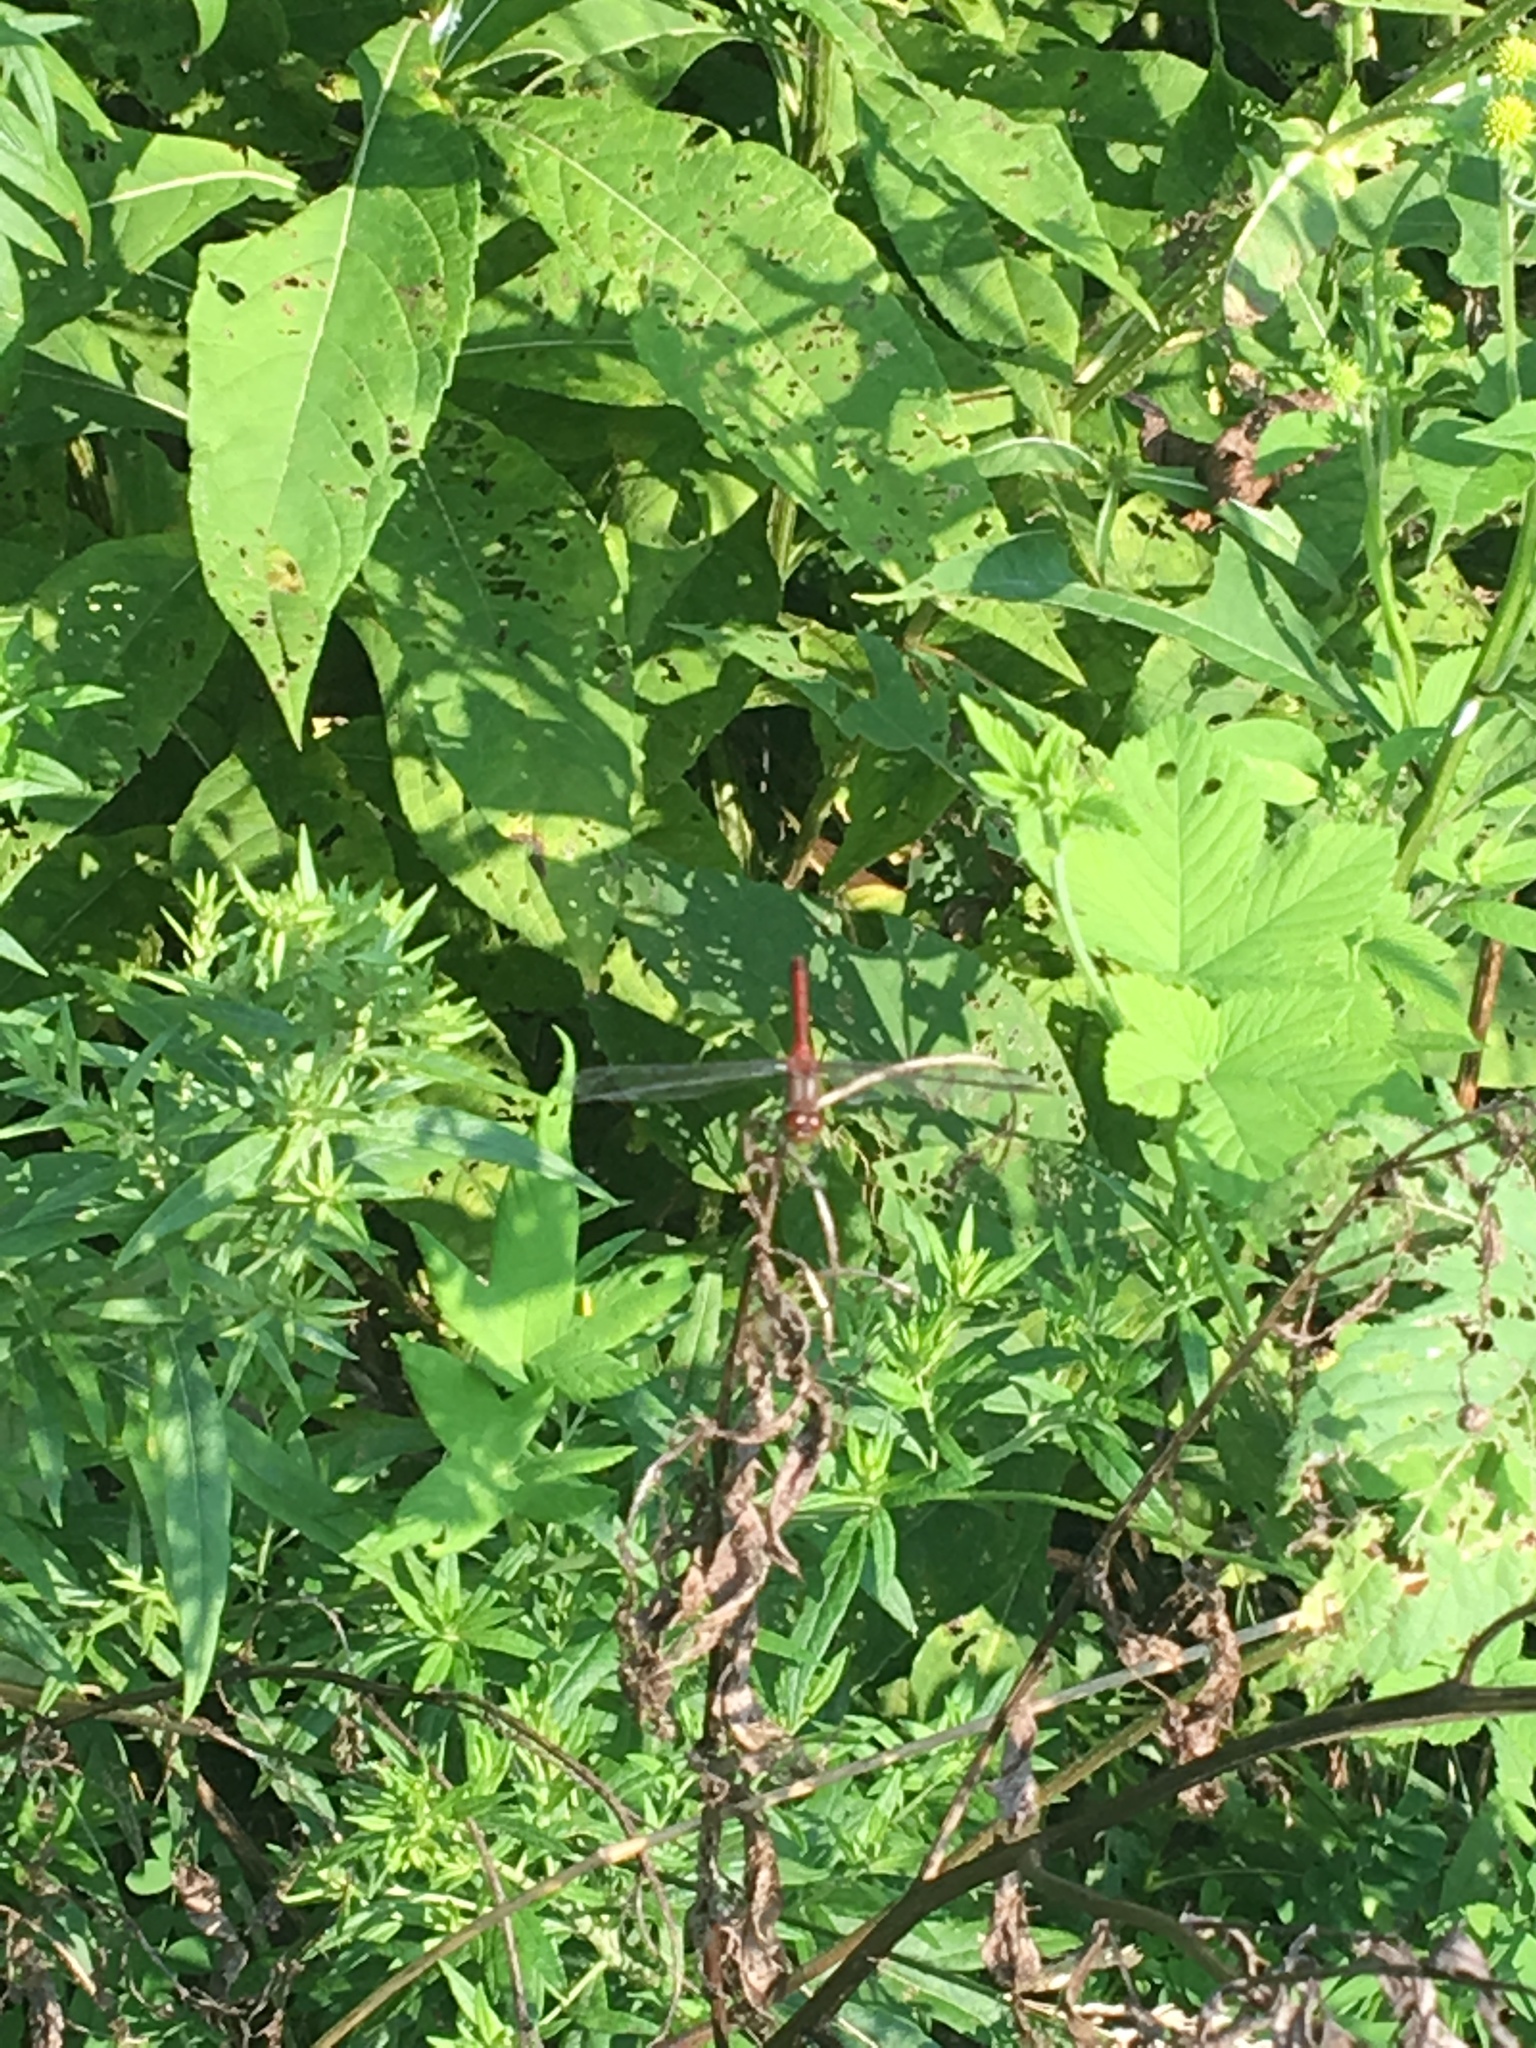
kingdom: Animalia
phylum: Arthropoda
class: Insecta
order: Odonata
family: Libellulidae
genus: Sympetrum
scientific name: Sympetrum vicinum
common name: Autumn meadowhawk
